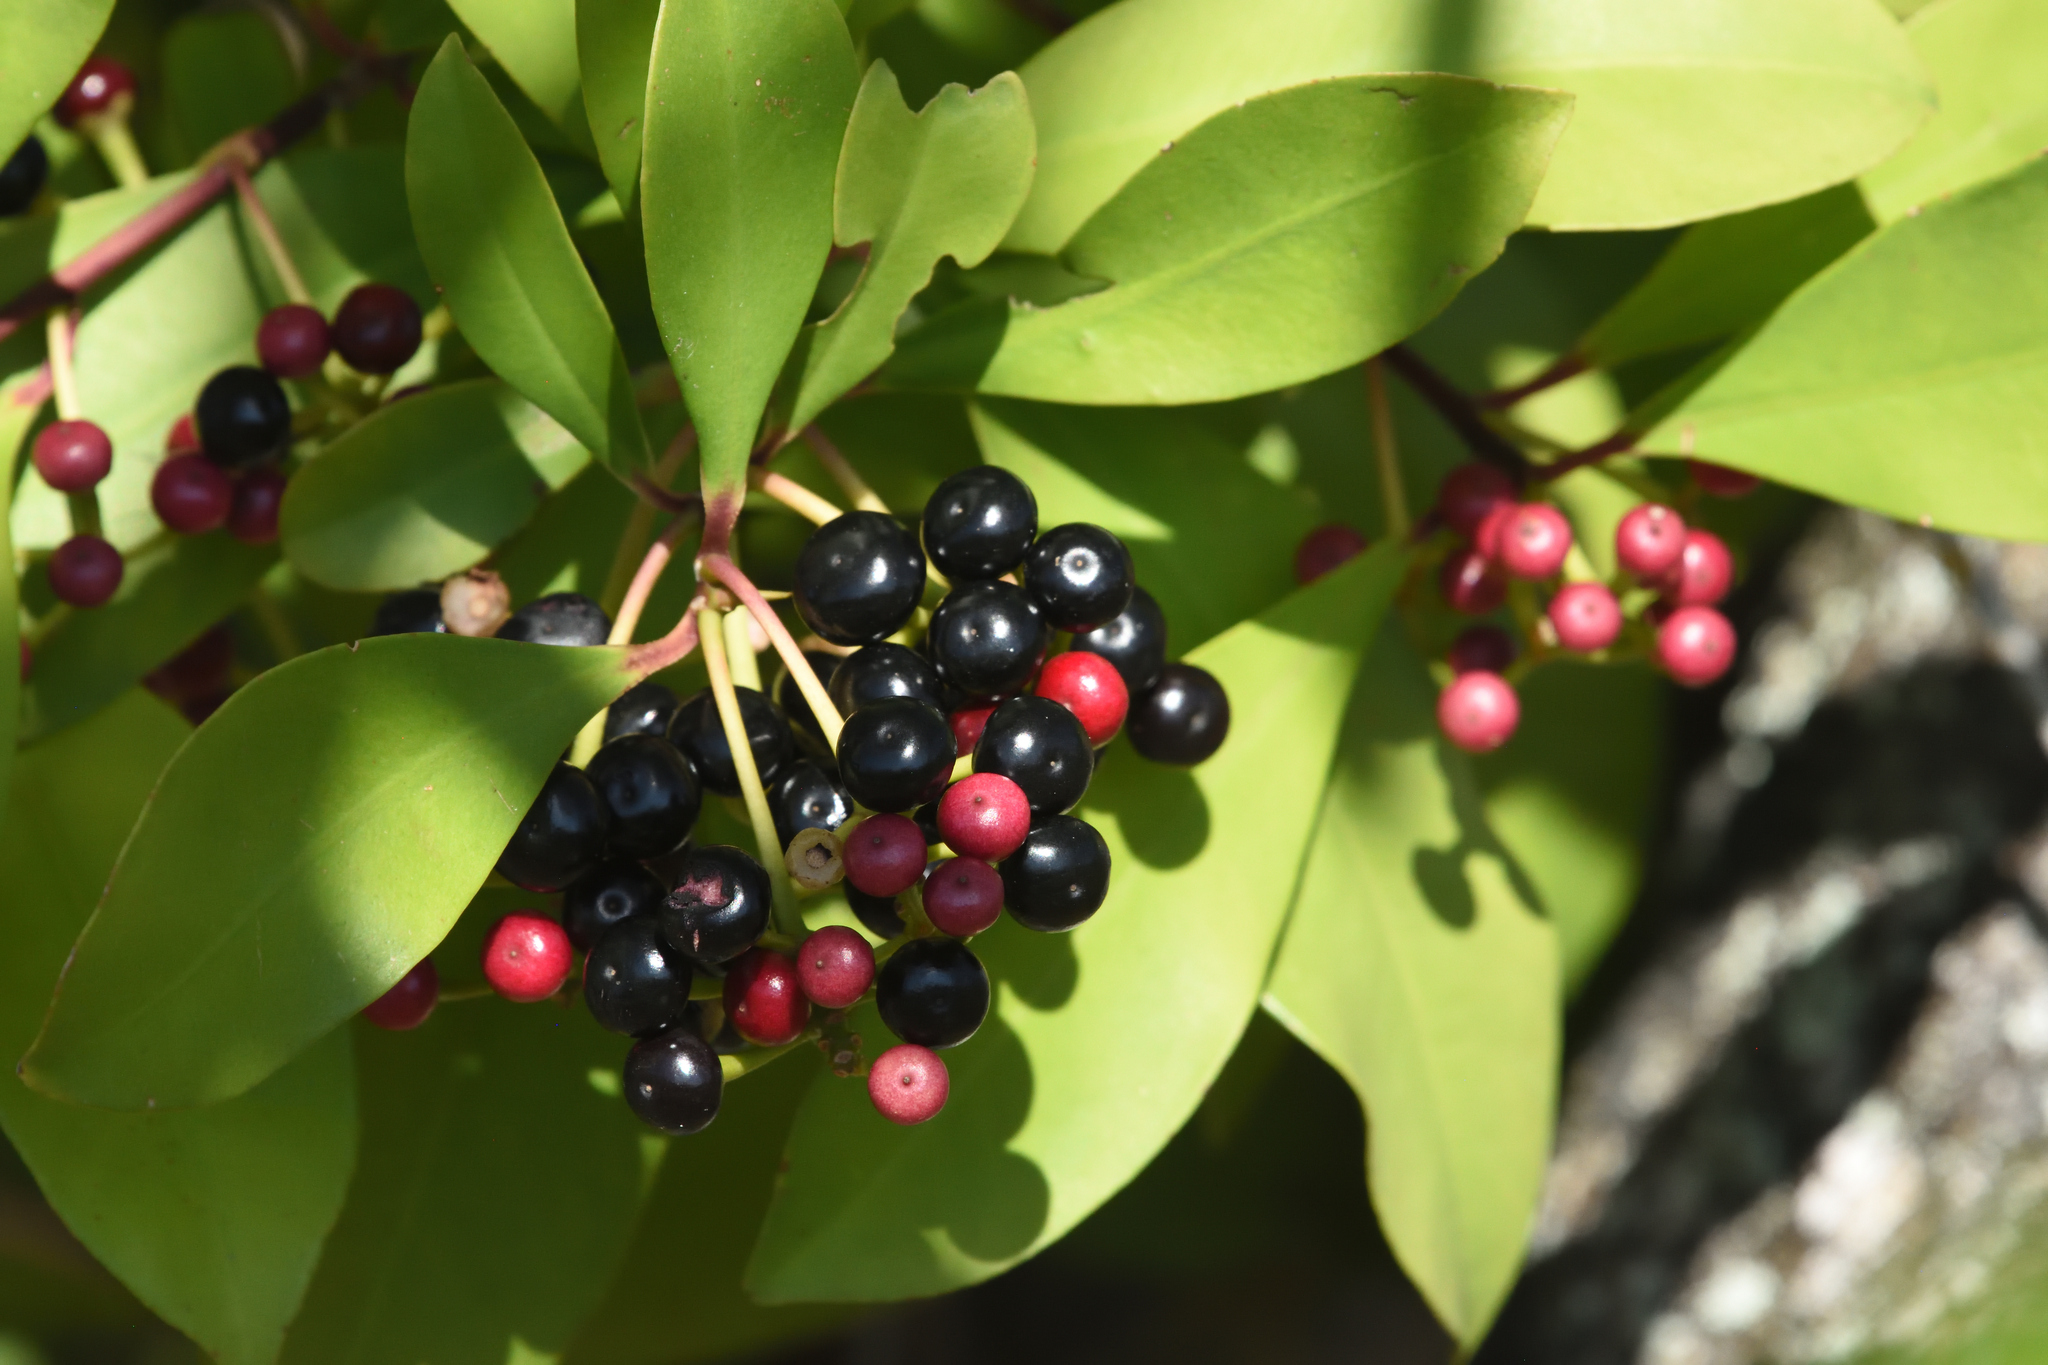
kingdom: Plantae
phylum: Tracheophyta
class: Magnoliopsida
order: Ericales
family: Primulaceae
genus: Ardisia
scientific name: Ardisia elliptica
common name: Shoebutton
